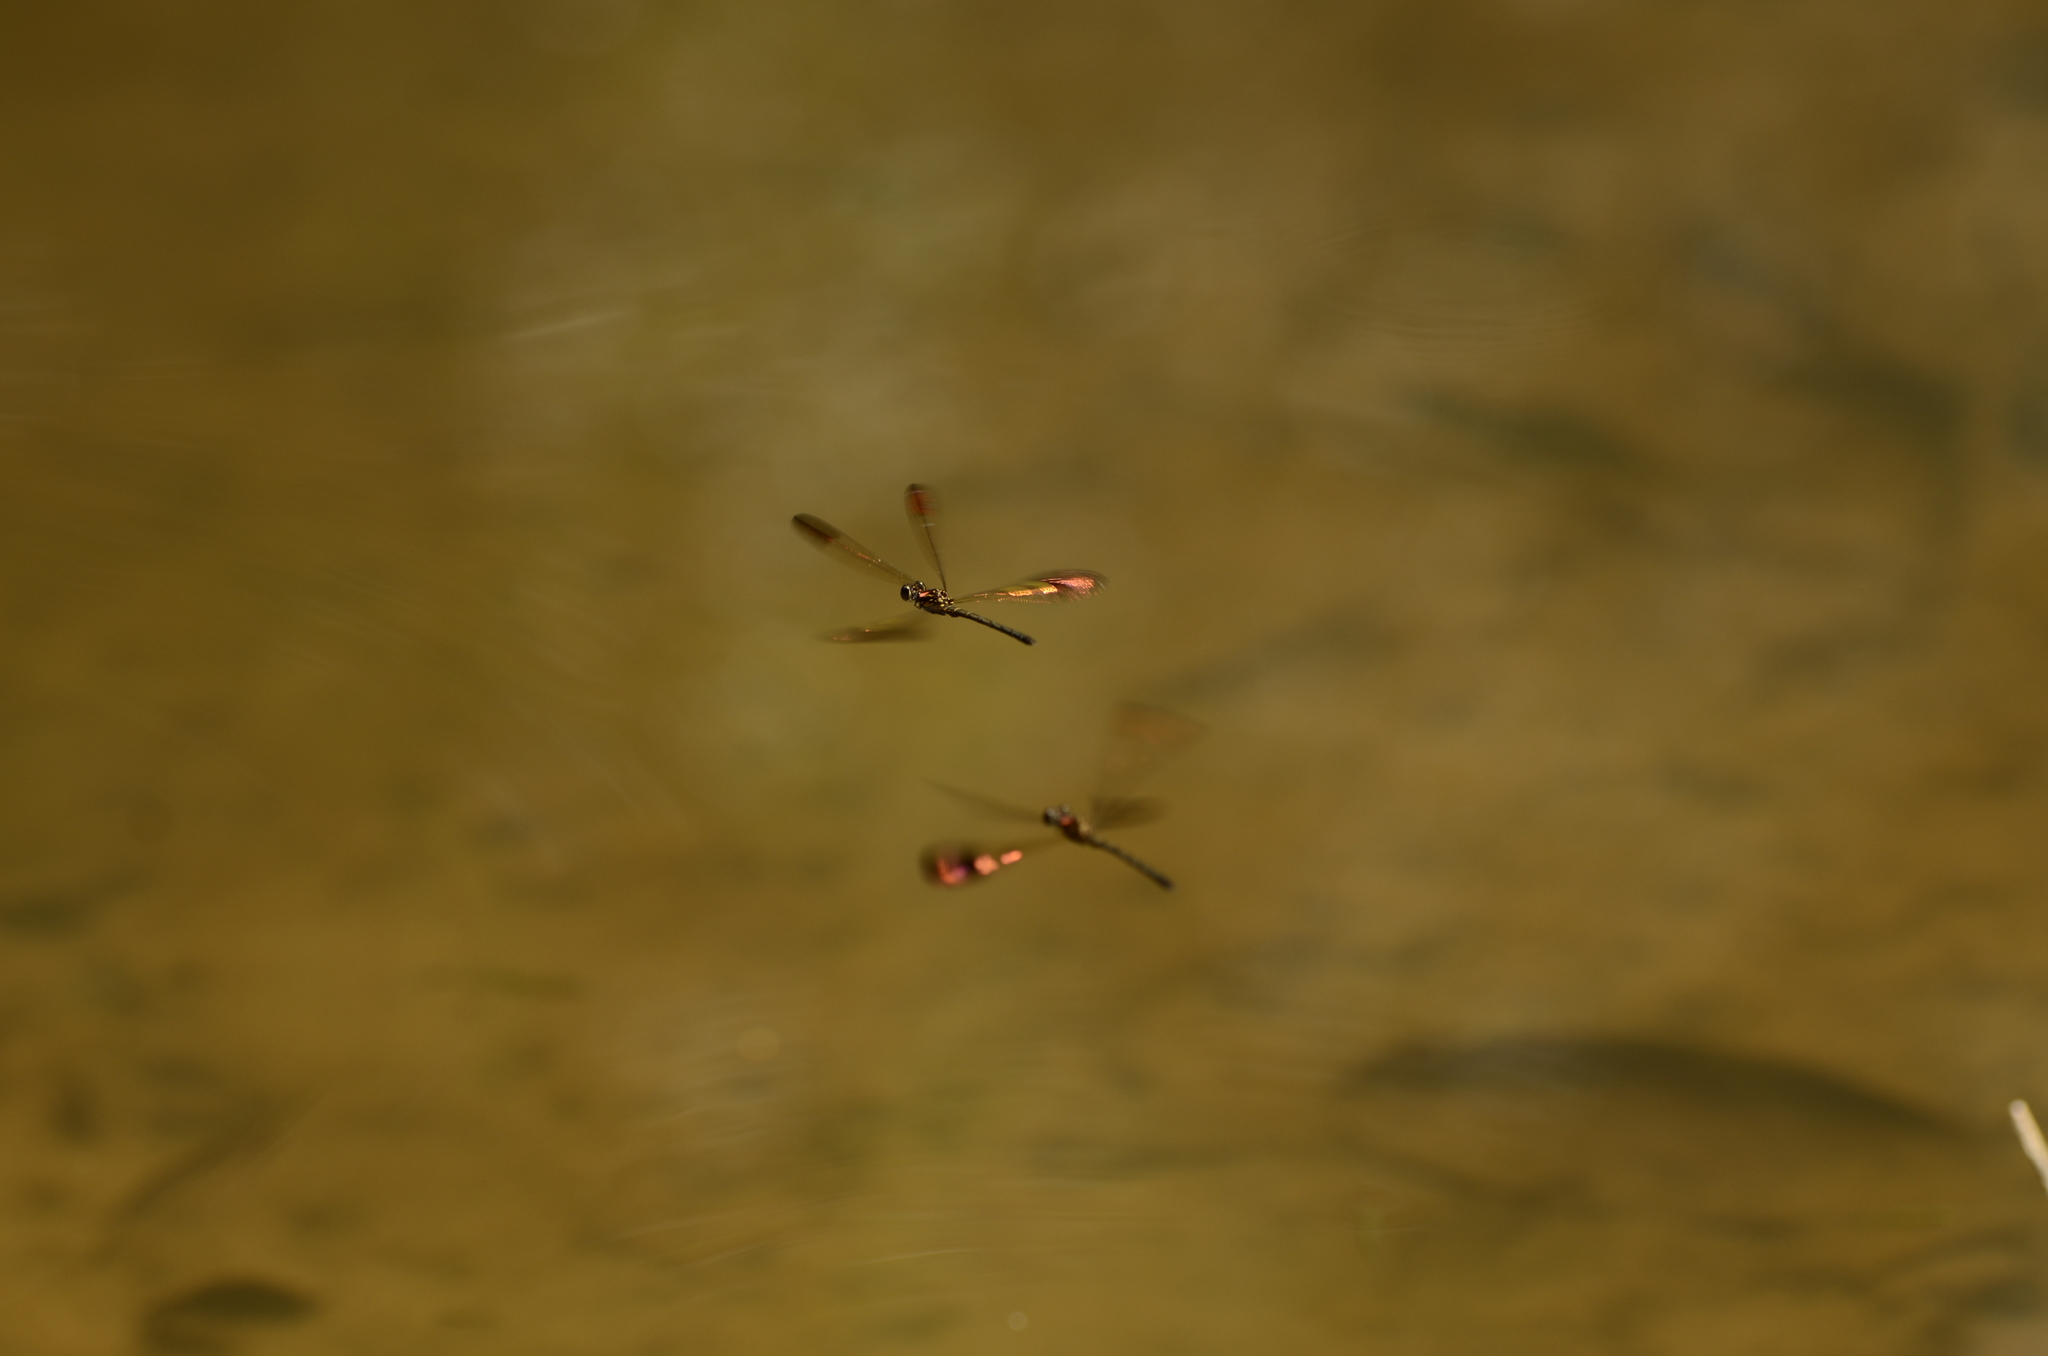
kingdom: Animalia
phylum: Arthropoda
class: Insecta
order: Odonata
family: Chlorocyphidae
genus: Heliocypha
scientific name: Heliocypha bisignata
